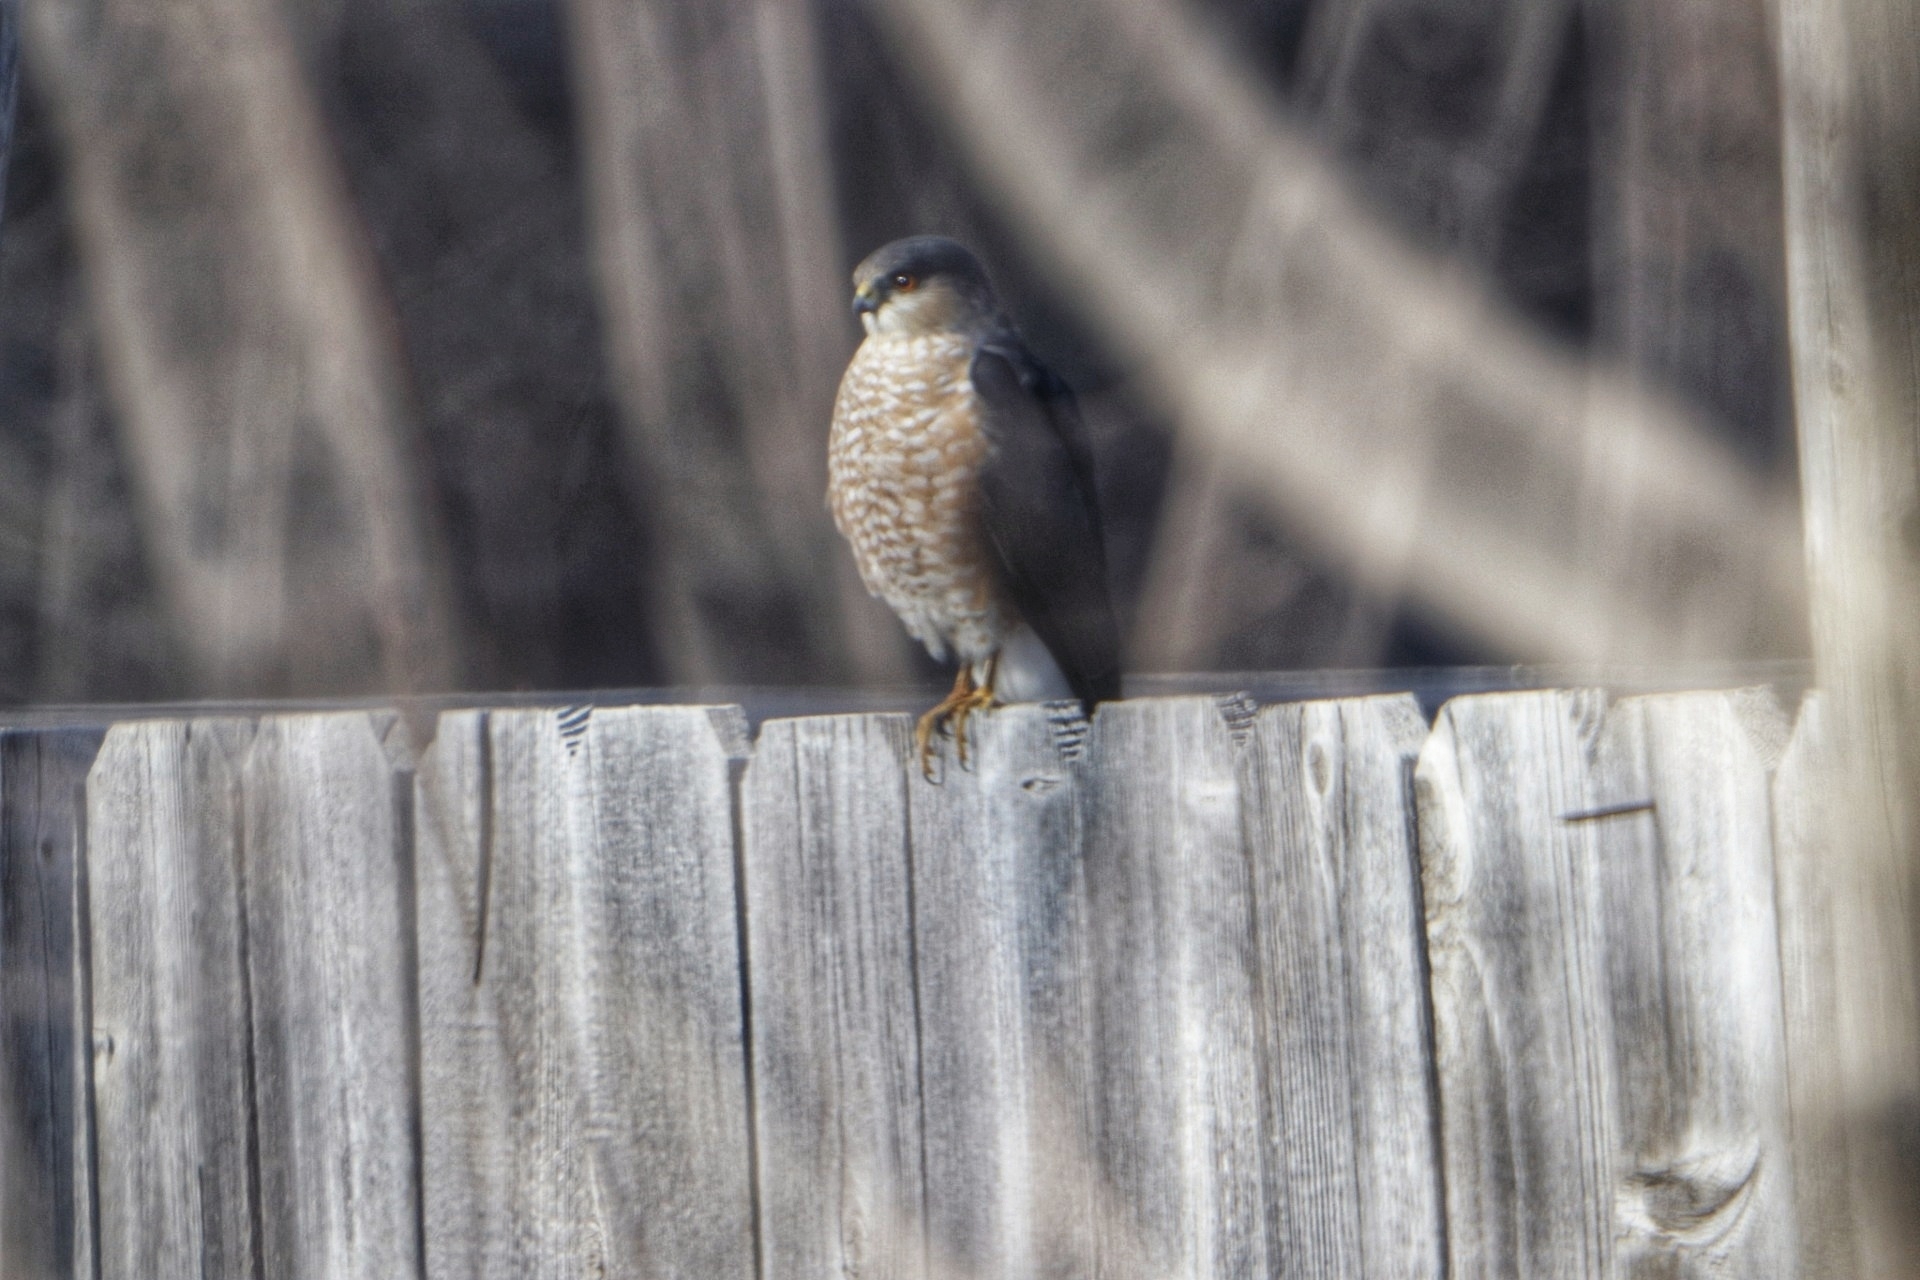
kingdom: Animalia
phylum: Chordata
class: Aves
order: Accipitriformes
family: Accipitridae
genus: Accipiter
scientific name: Accipiter striatus
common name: Sharp-shinned hawk
